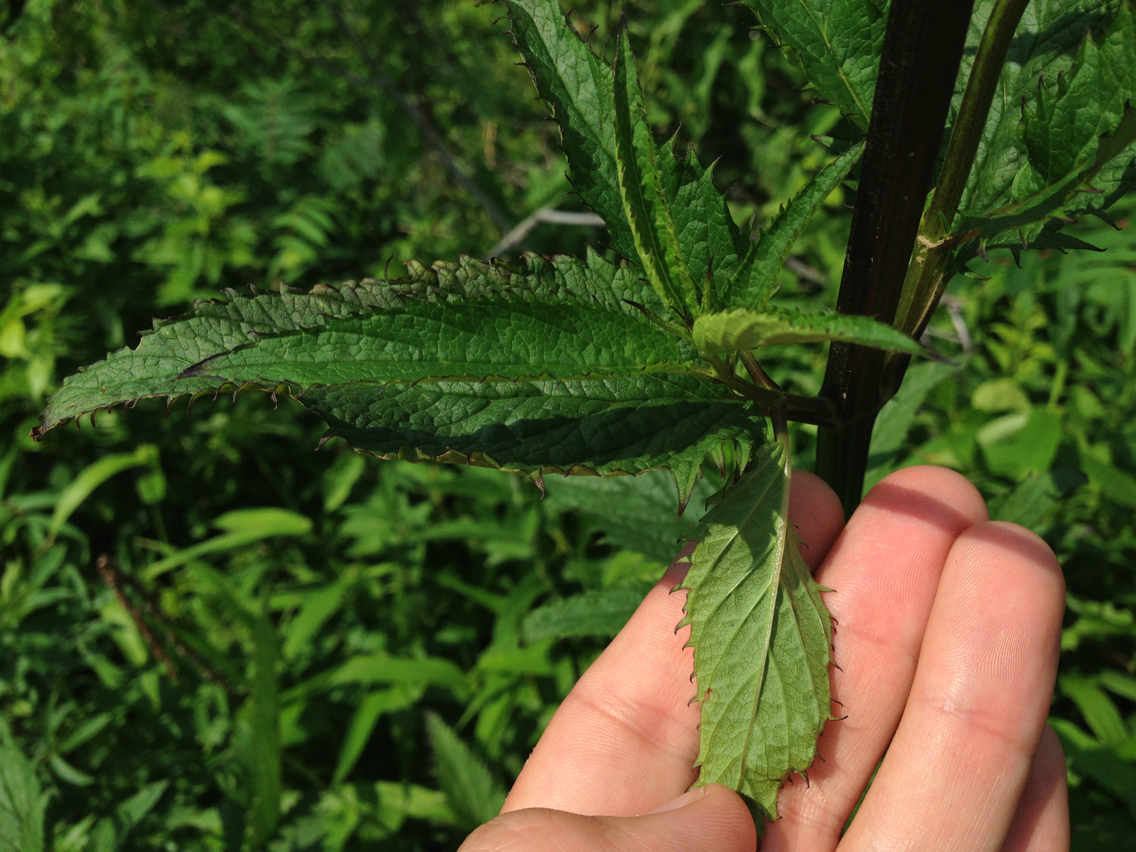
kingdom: Plantae
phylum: Tracheophyta
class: Magnoliopsida
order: Lamiales
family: Scrophulariaceae
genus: Scrophularia
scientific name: Scrophularia lanceolata
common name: American figwort
